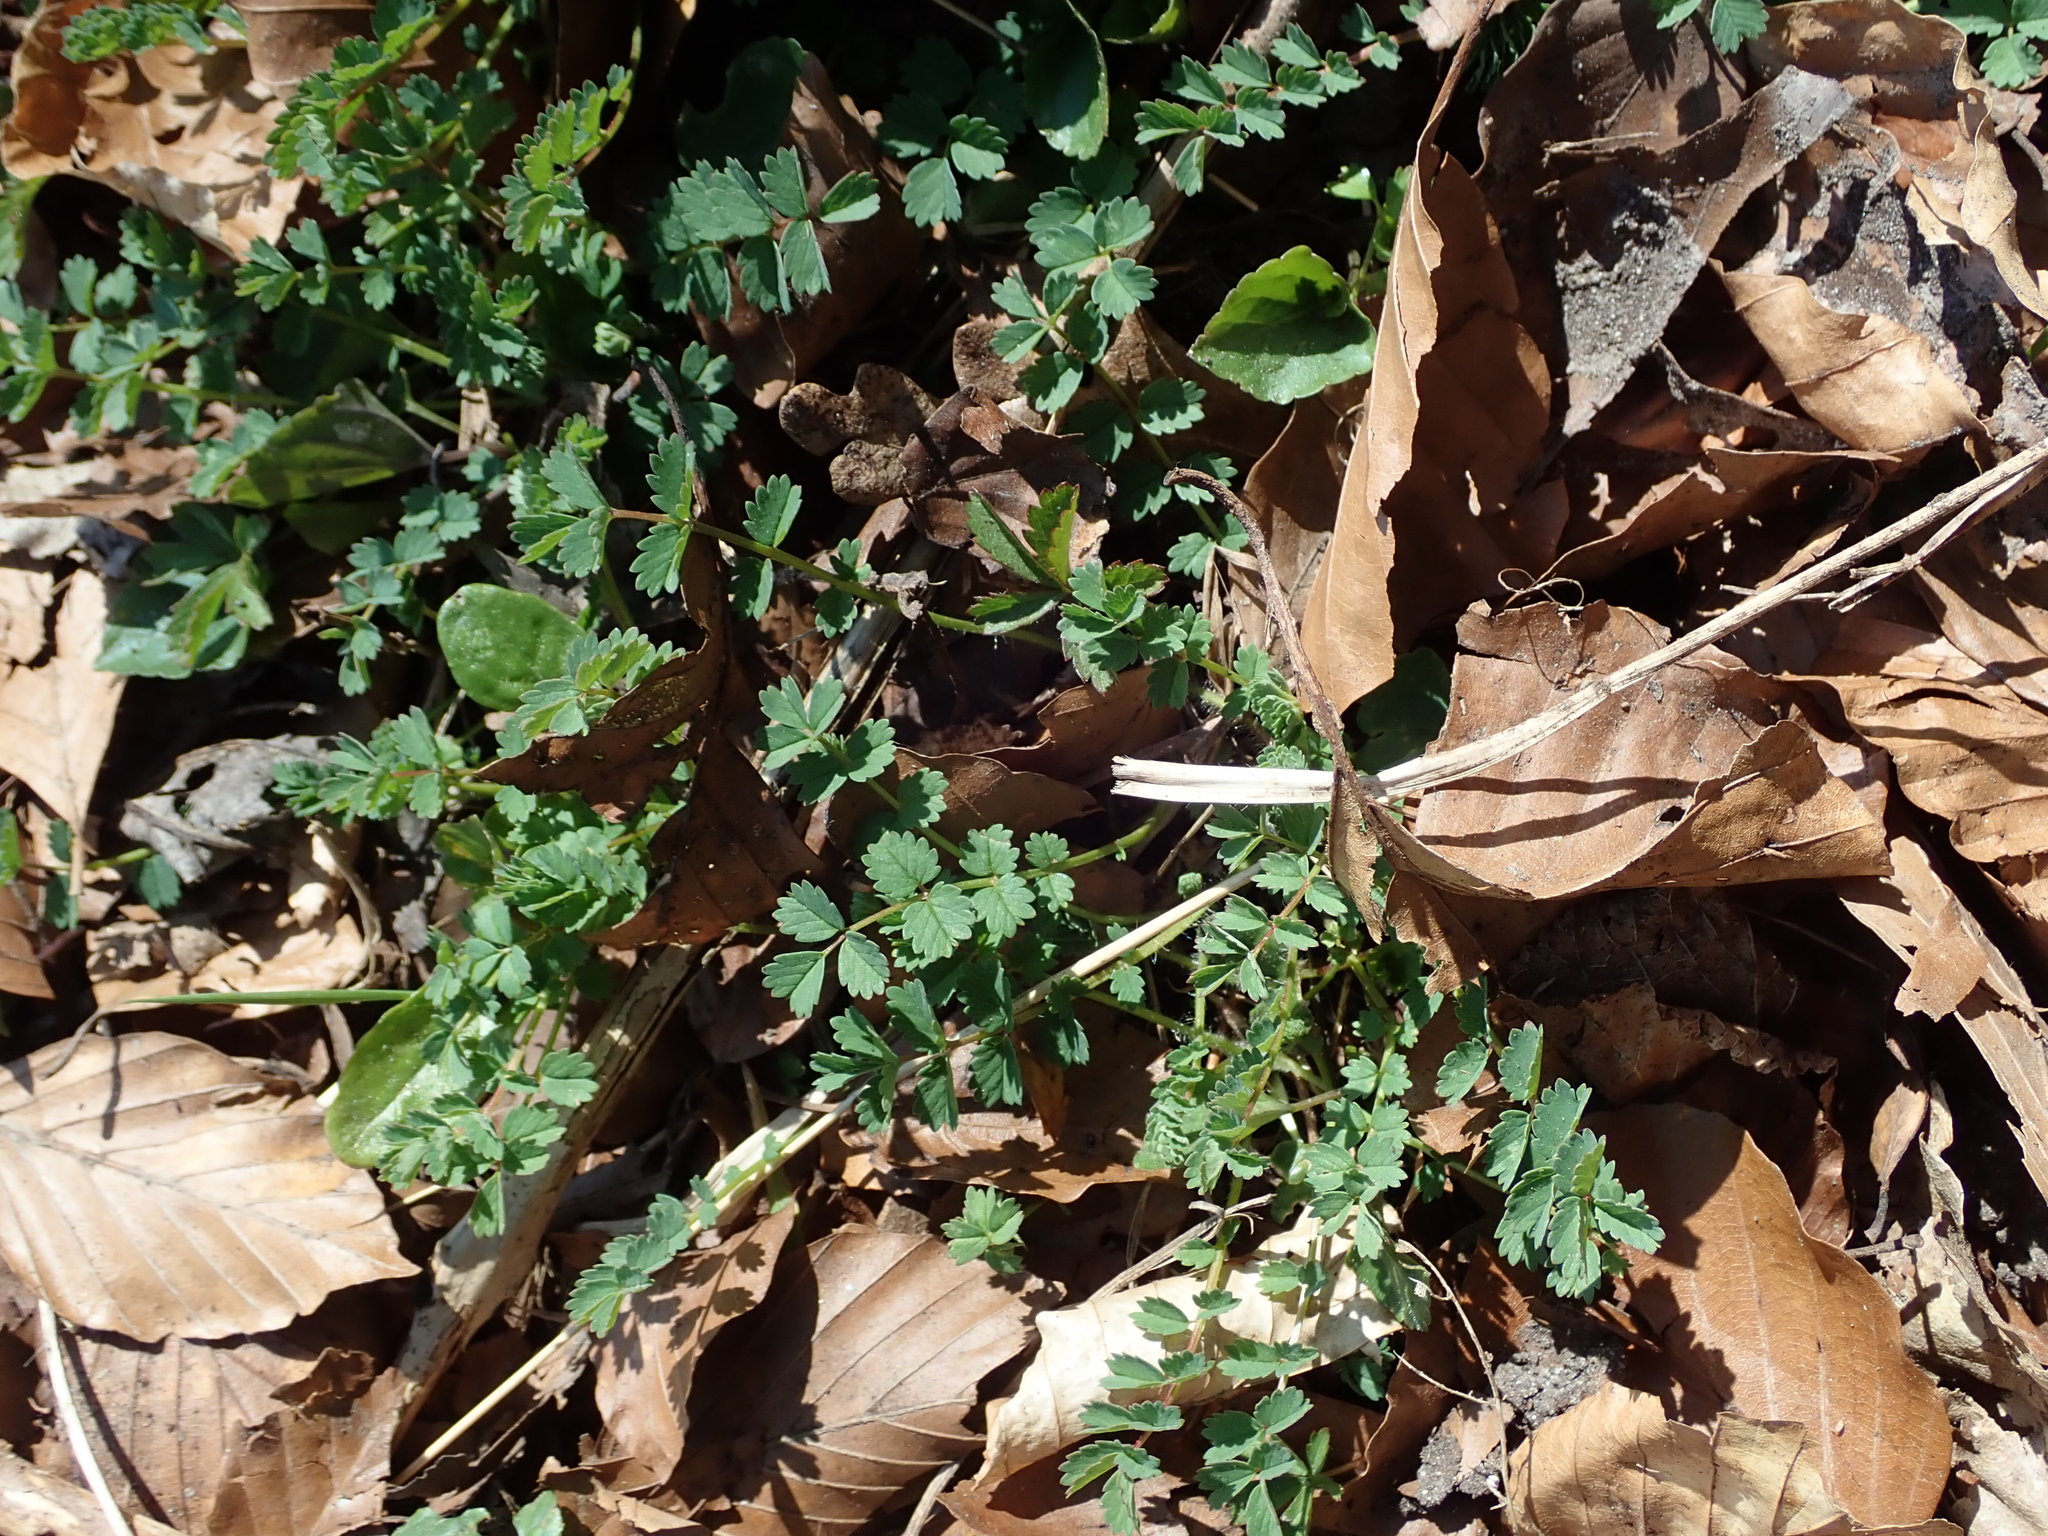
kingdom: Plantae
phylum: Tracheophyta
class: Magnoliopsida
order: Rosales
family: Rosaceae
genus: Poterium
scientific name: Poterium sanguisorba
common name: Salad burnet
